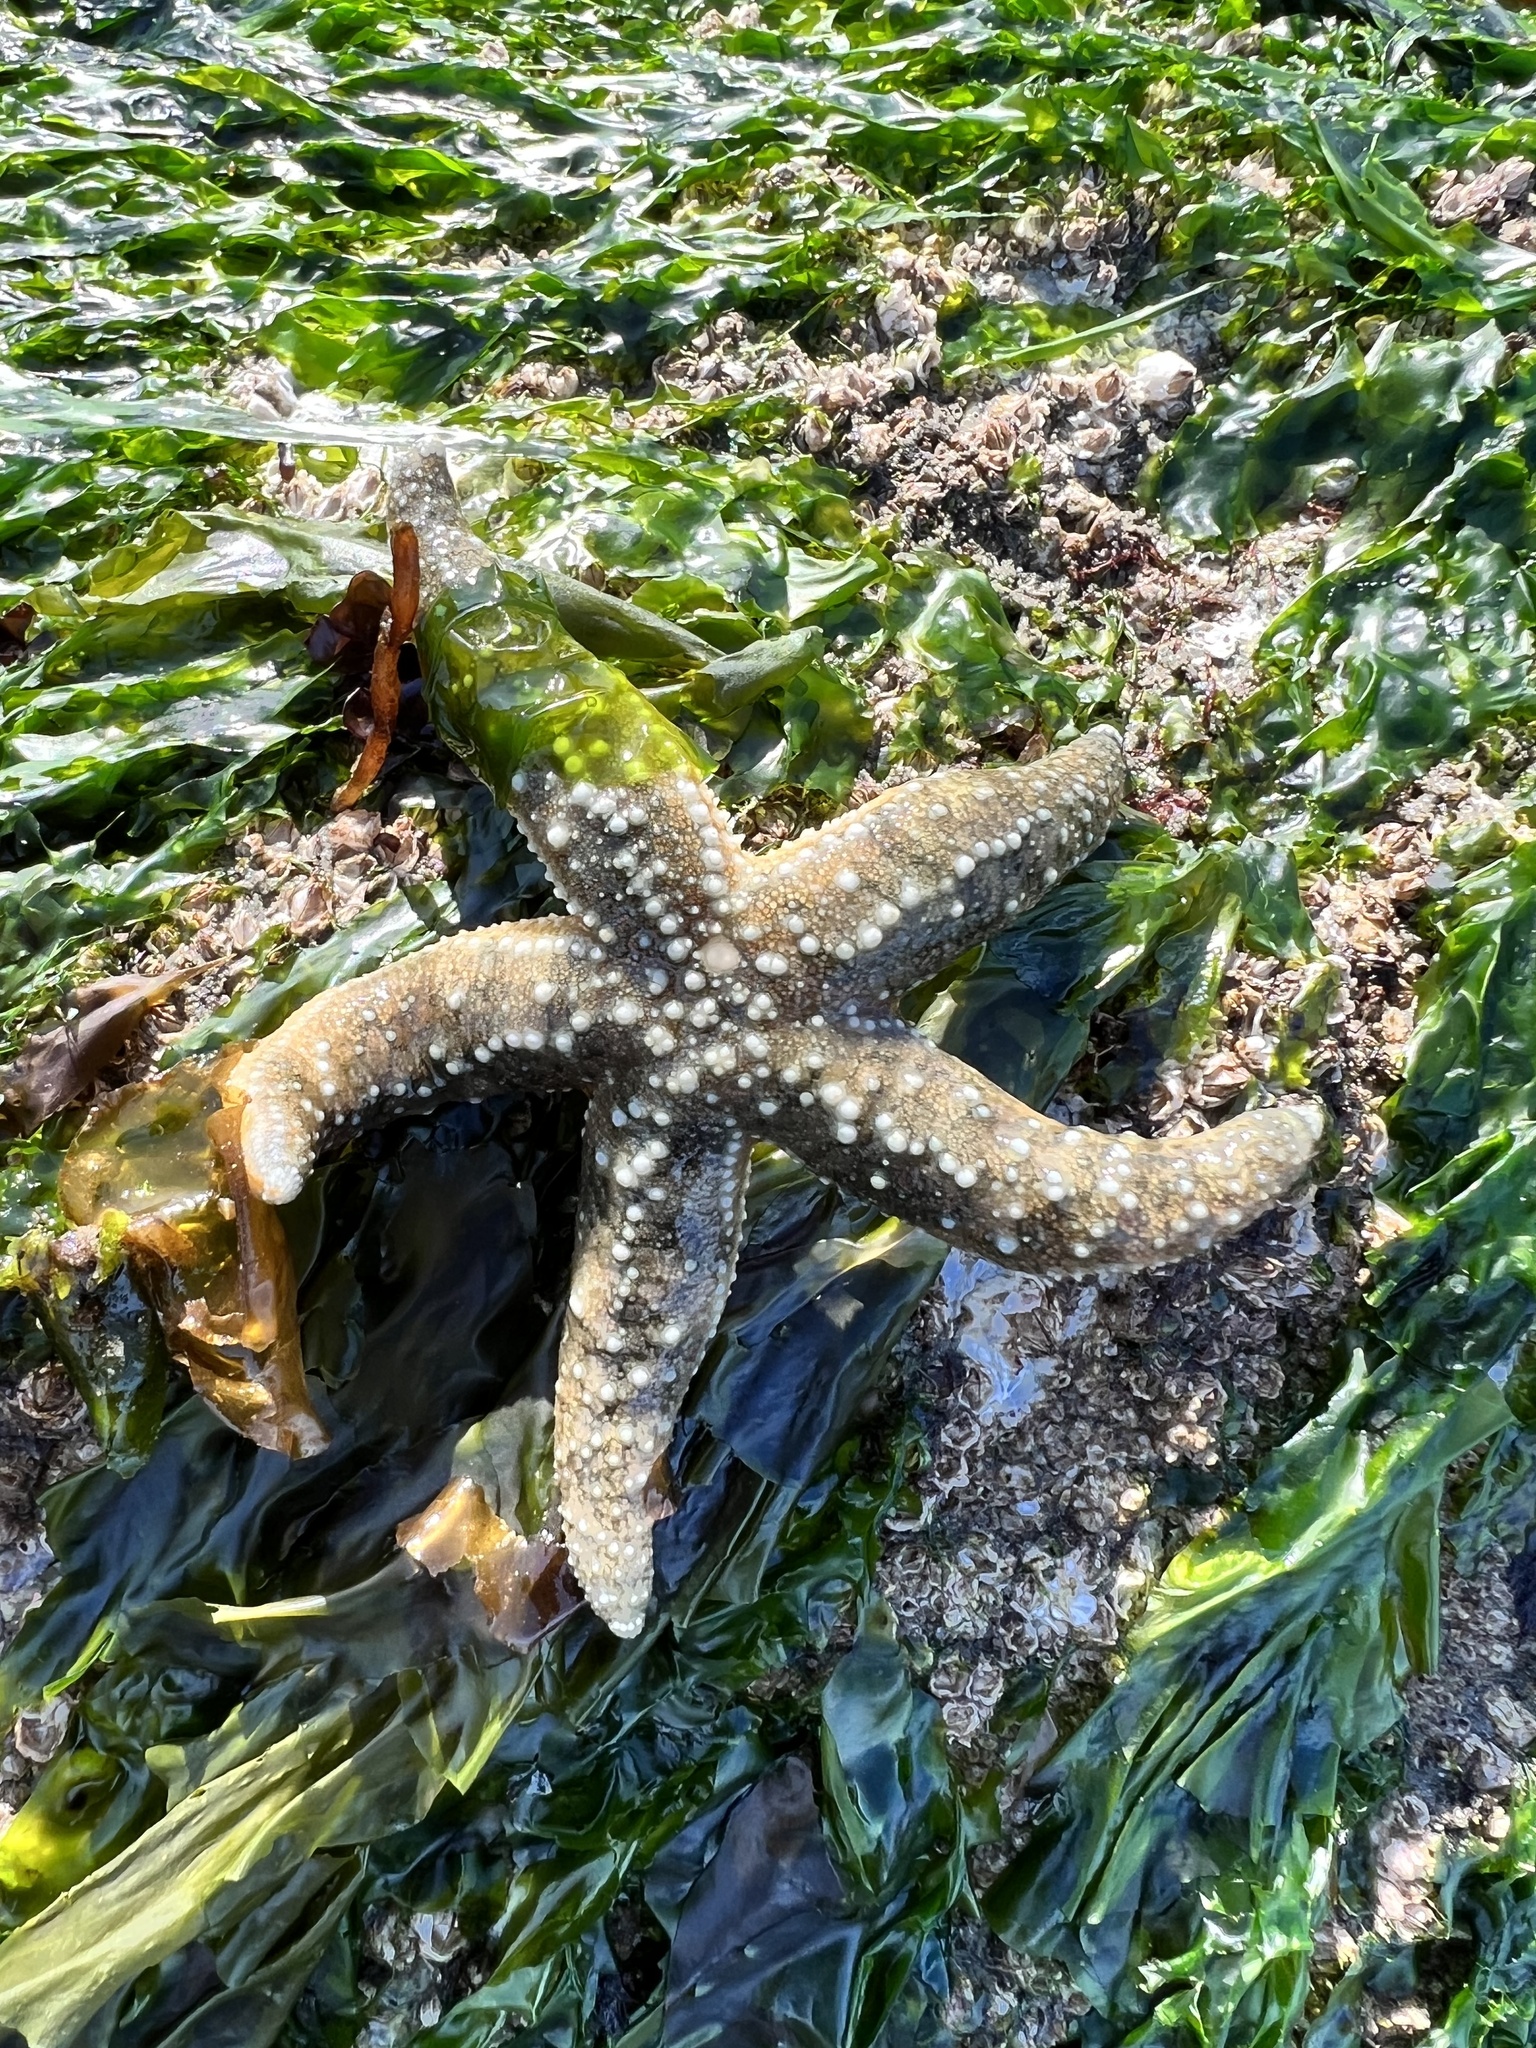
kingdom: Animalia
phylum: Echinodermata
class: Asteroidea
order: Forcipulatida
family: Asteriidae
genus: Evasterias
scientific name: Evasterias troschelii
